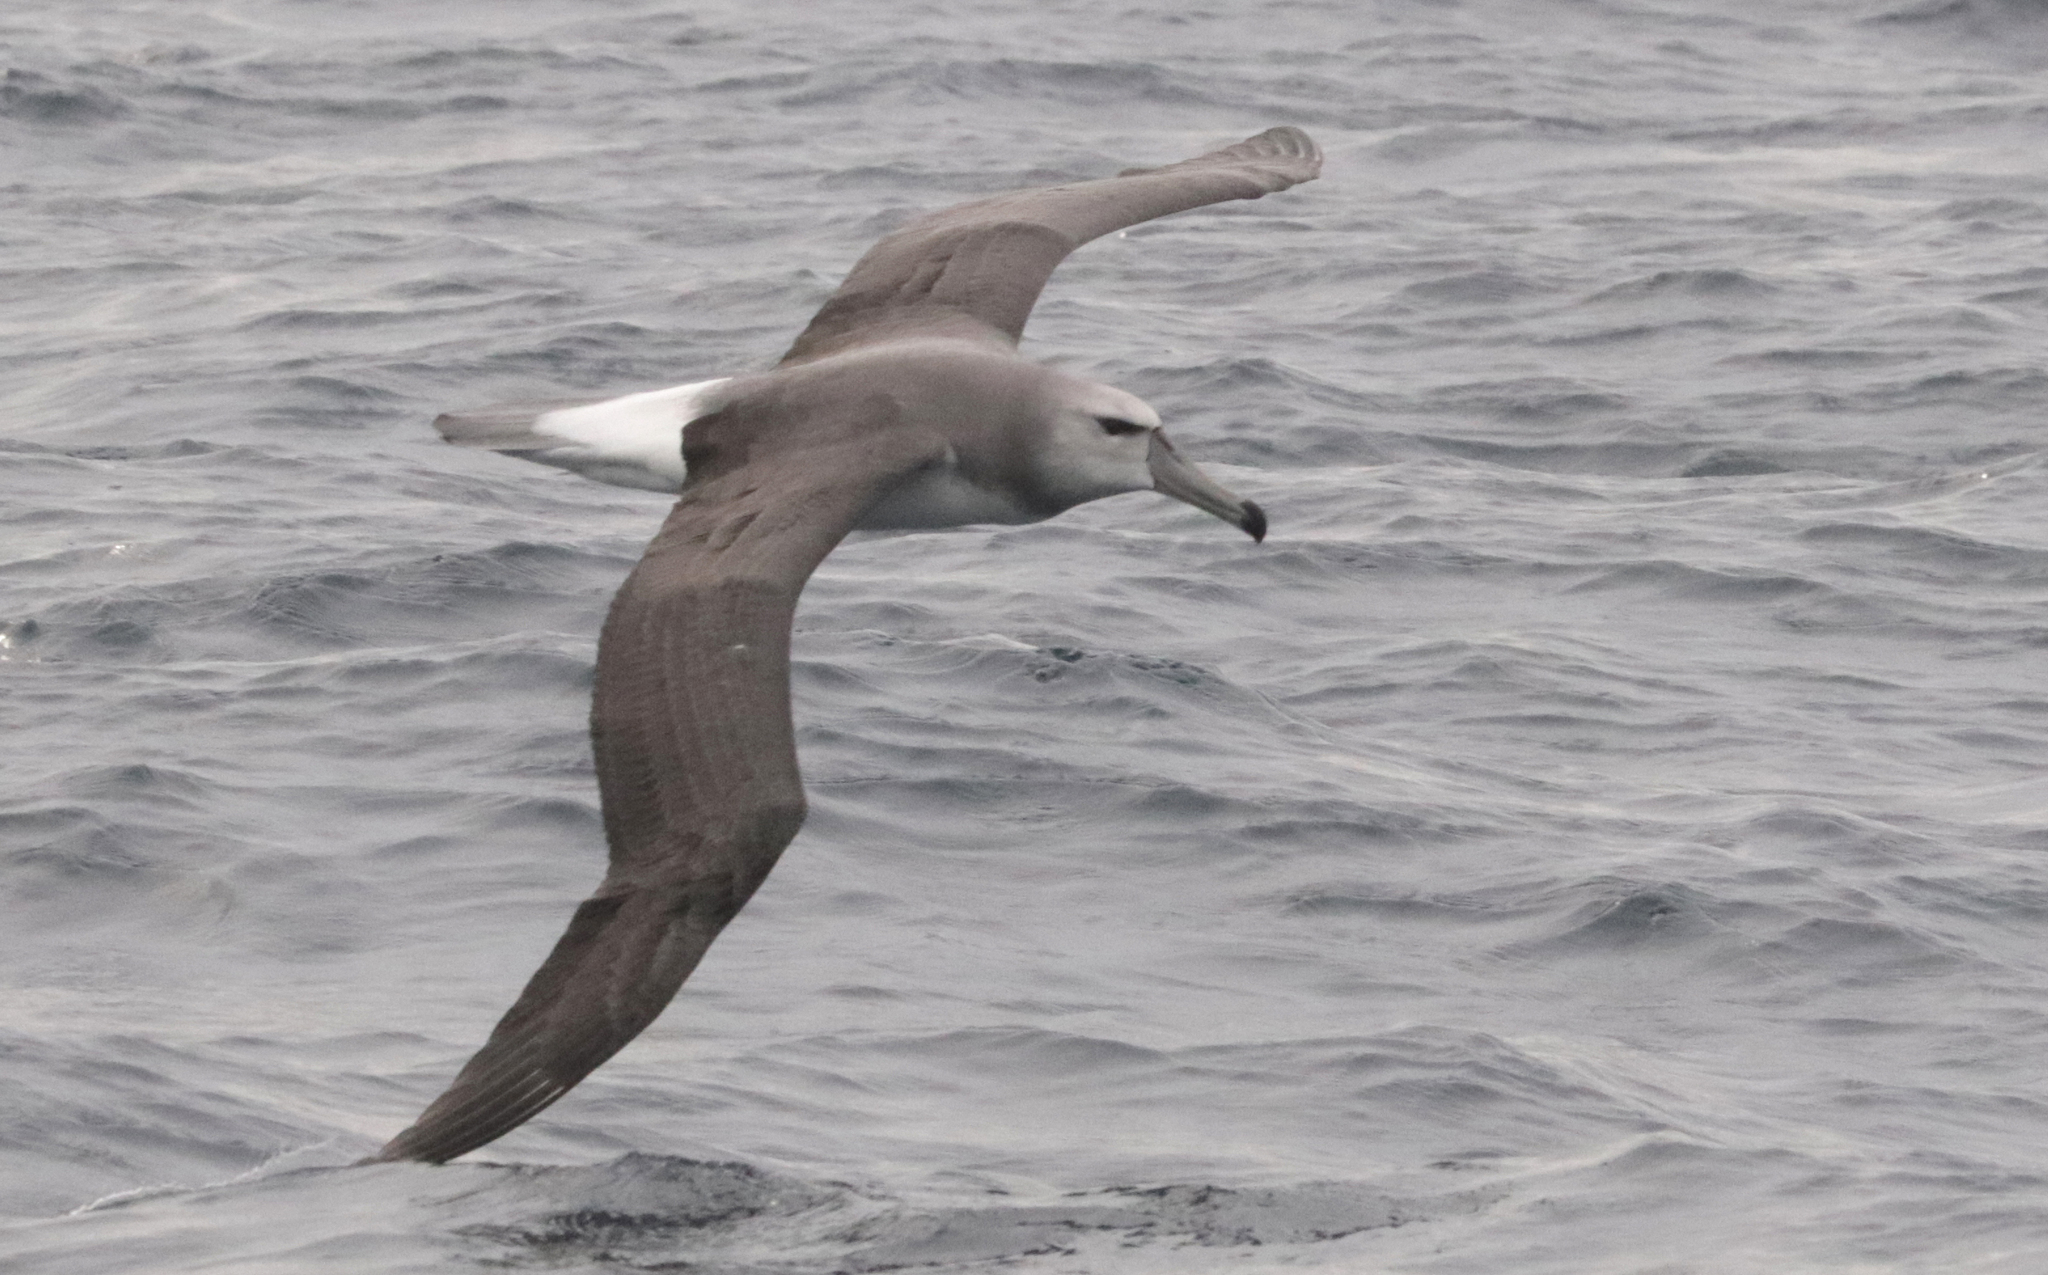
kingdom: Animalia
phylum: Chordata
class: Aves
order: Procellariiformes
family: Diomedeidae
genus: Thalassarche
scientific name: Thalassarche cauta
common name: Shy albatross
